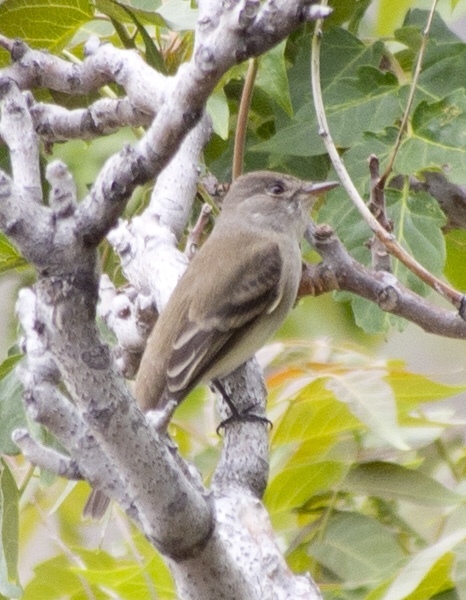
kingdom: Animalia
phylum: Chordata
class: Aves
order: Passeriformes
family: Tyrannidae
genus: Empidonax
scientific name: Empidonax traillii
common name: Willow flycatcher
